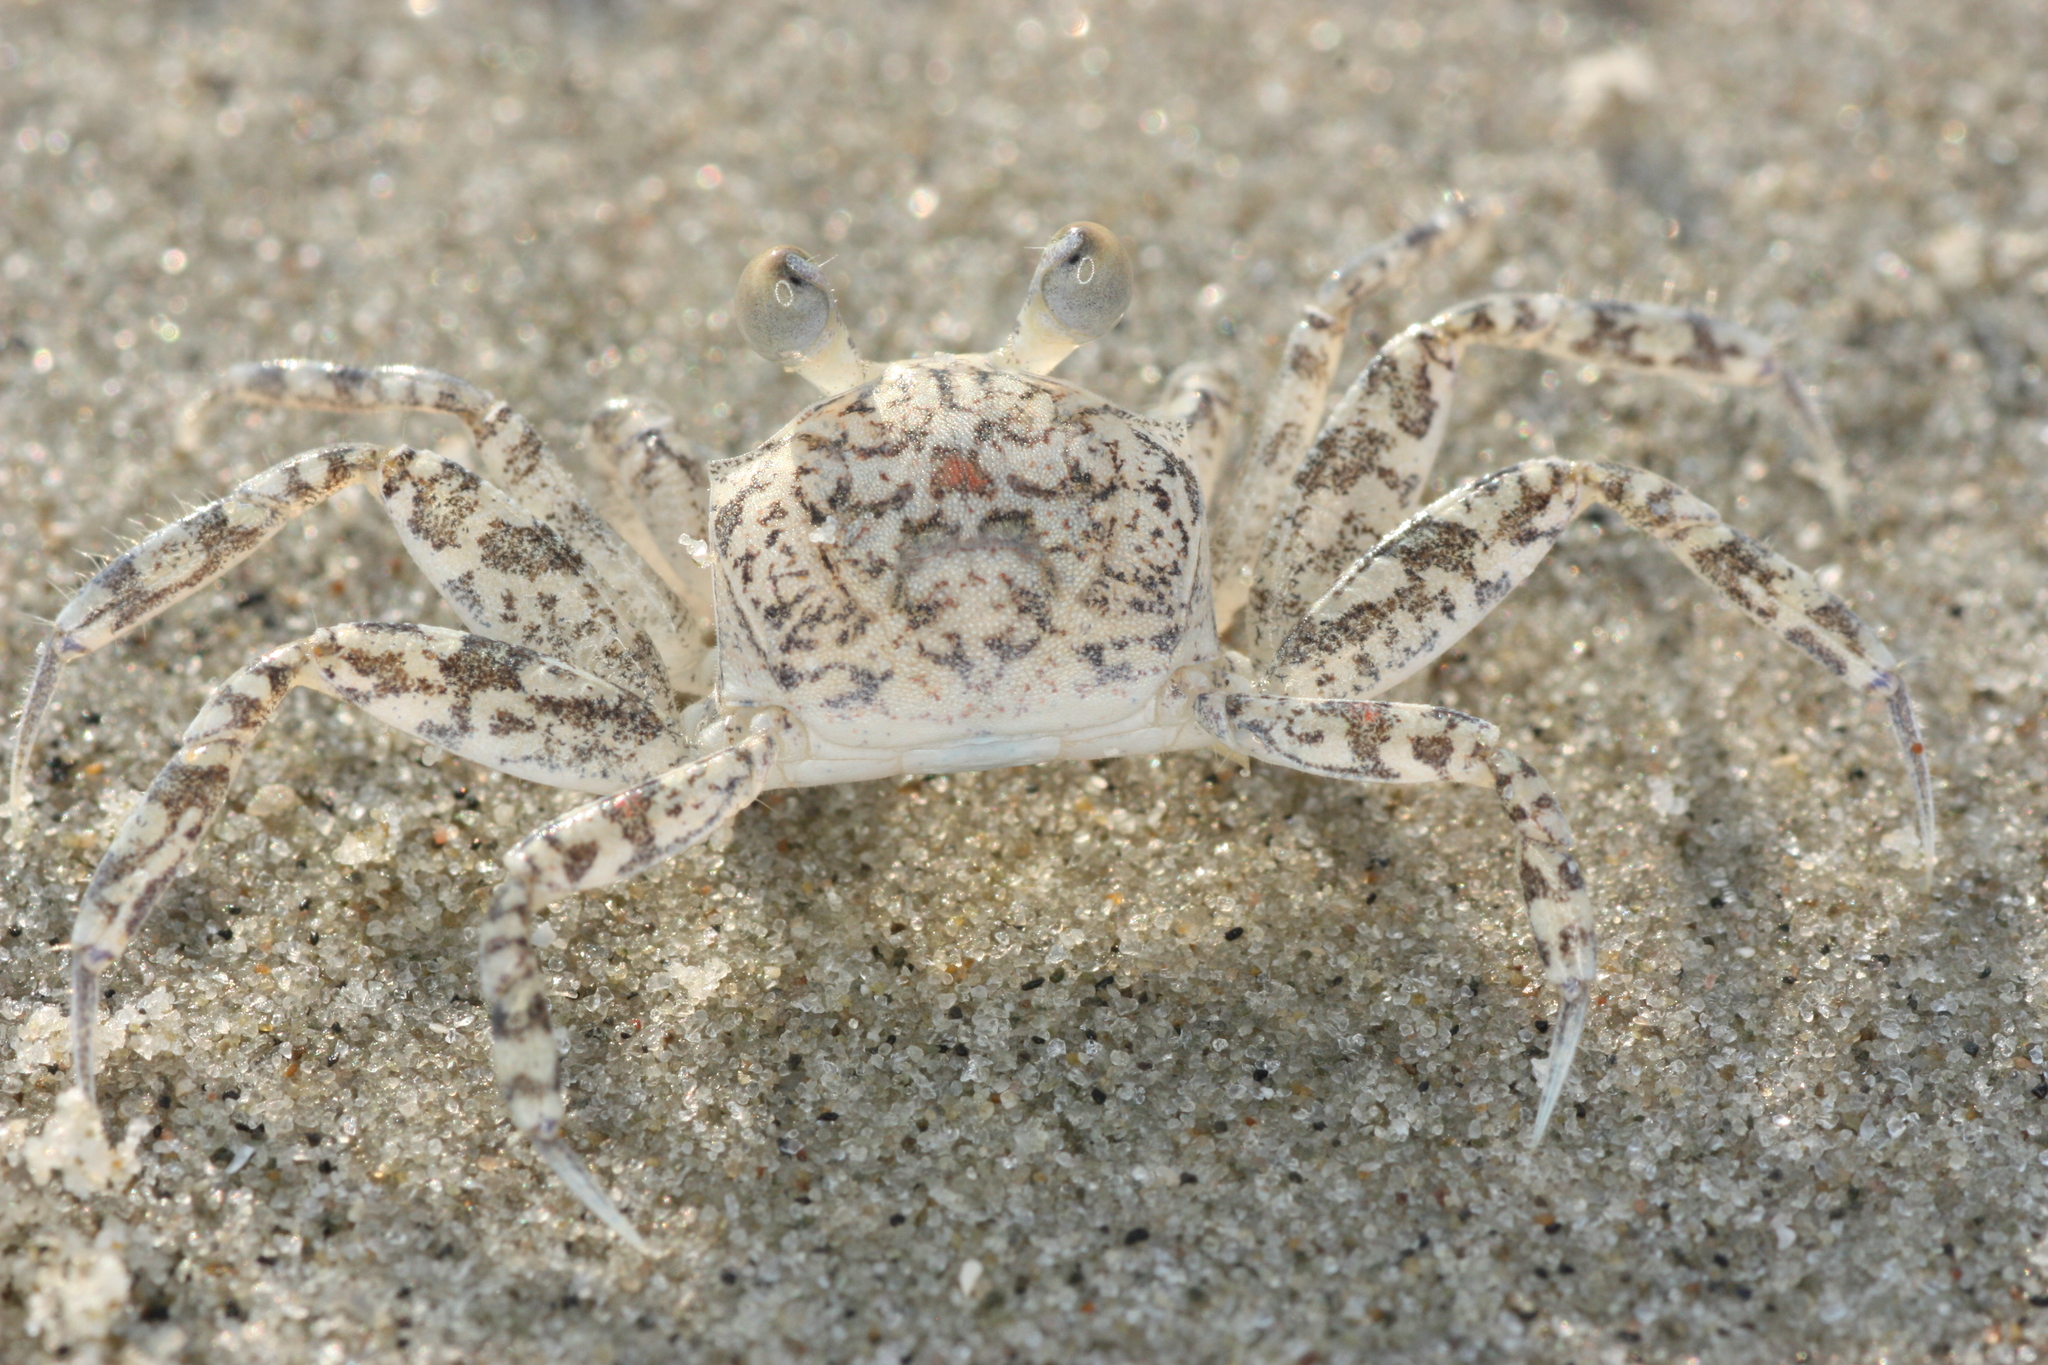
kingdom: Animalia
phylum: Arthropoda
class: Malacostraca
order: Decapoda
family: Ocypodidae
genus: Ocypode
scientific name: Ocypode quadrata
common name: Ghost crab
